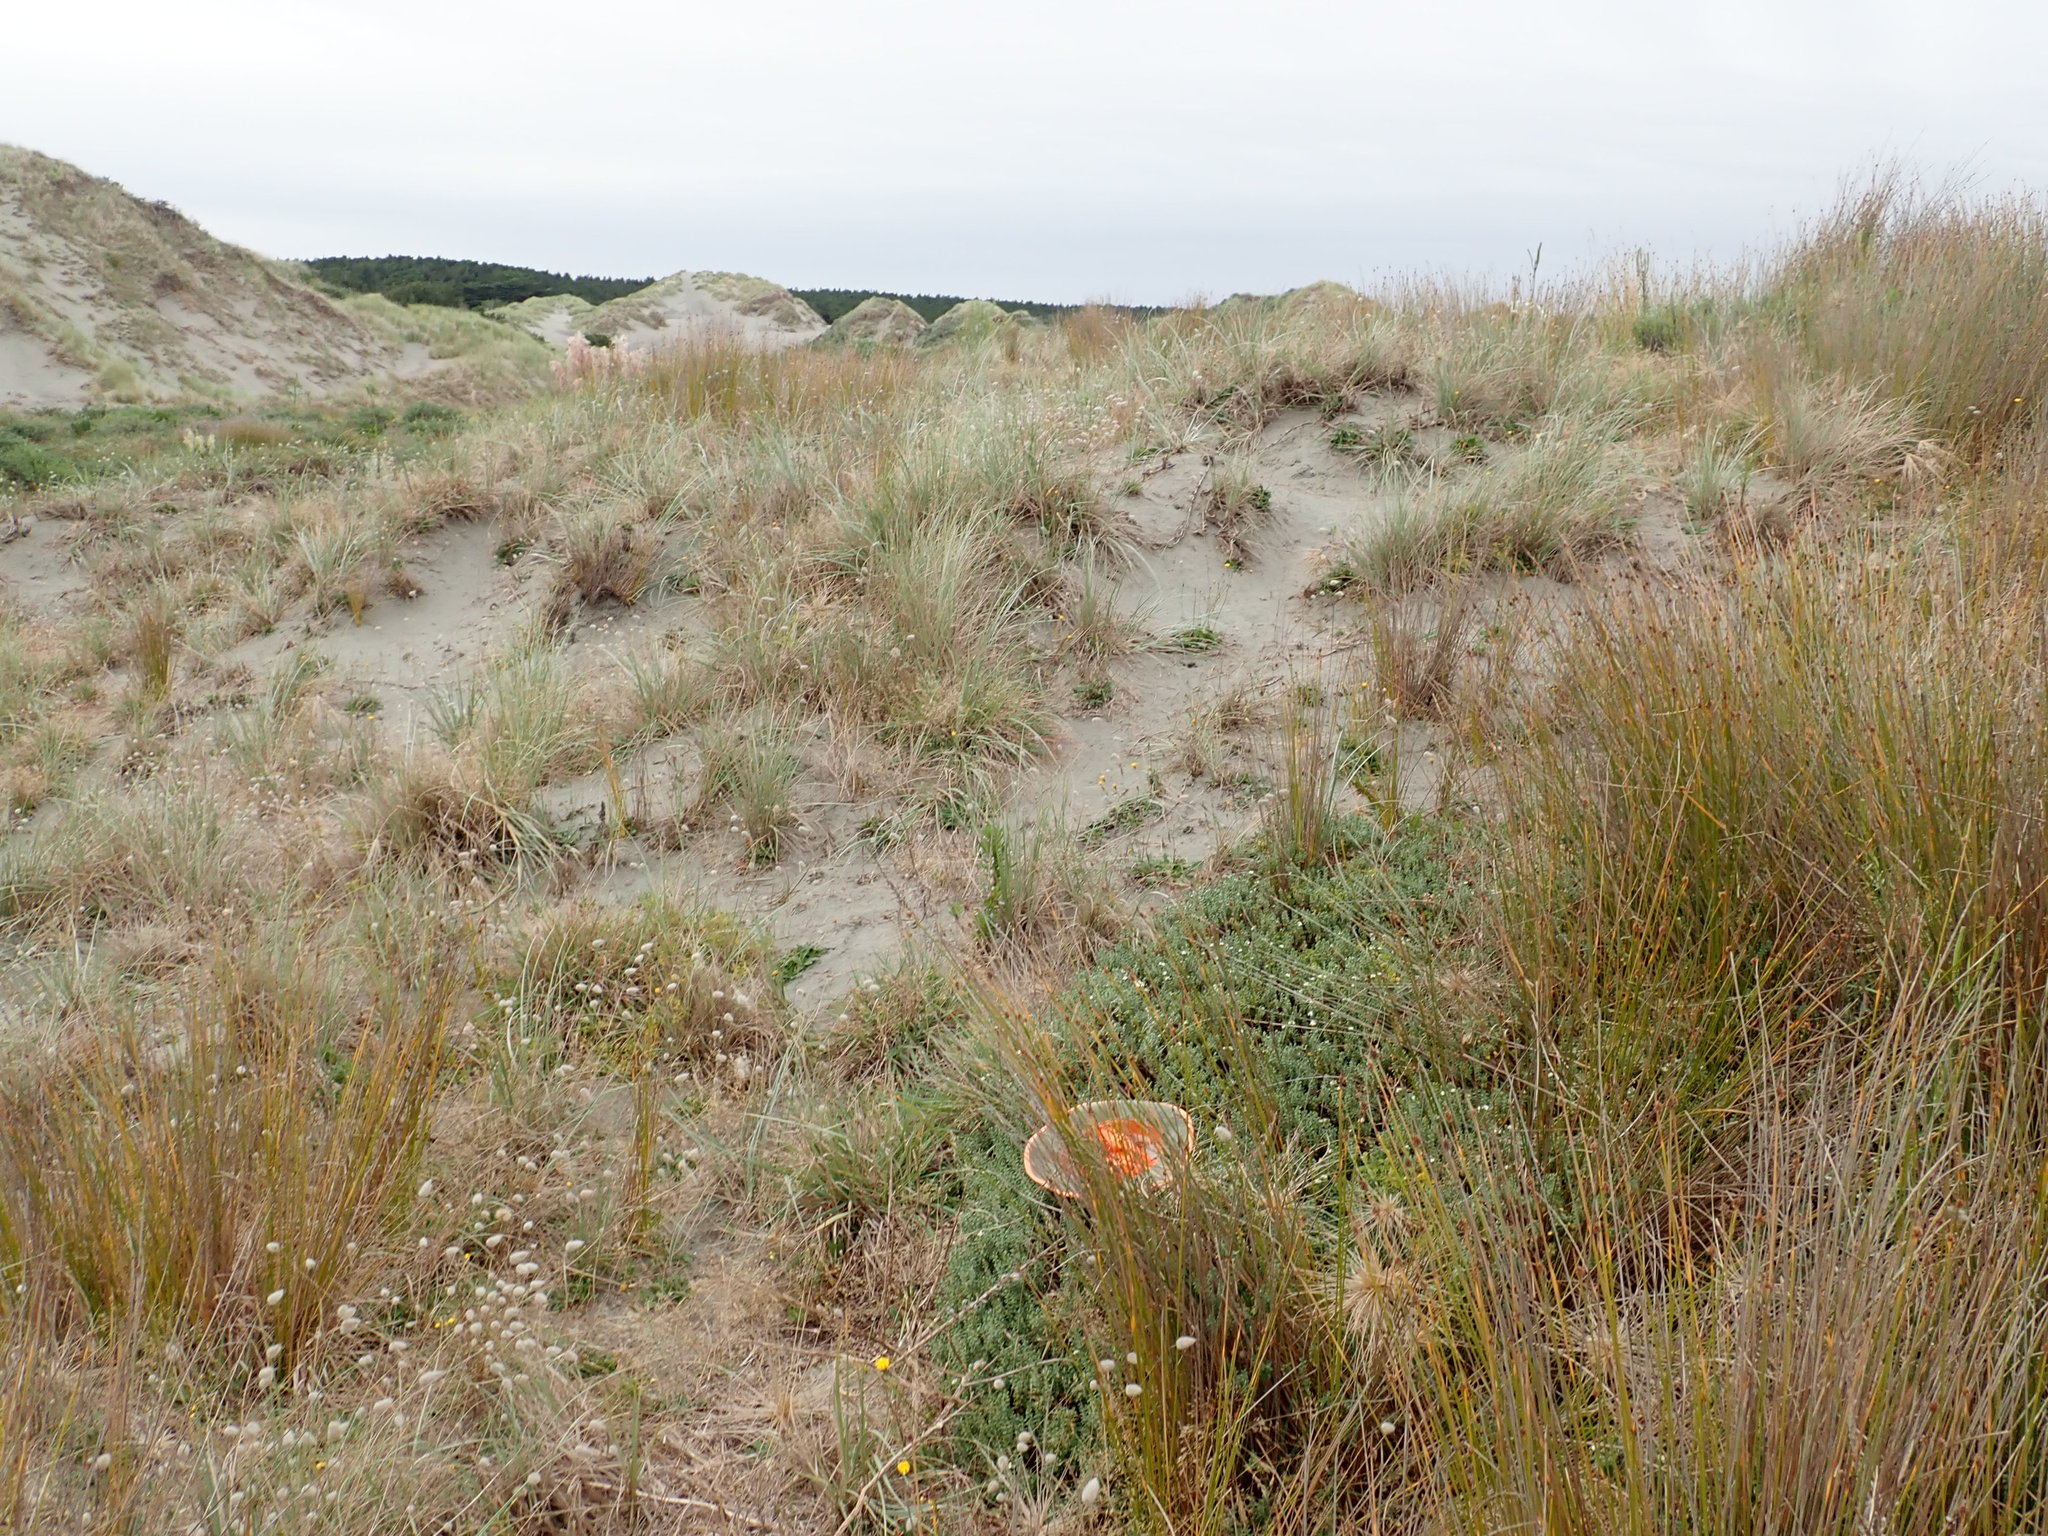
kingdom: Plantae
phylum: Tracheophyta
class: Magnoliopsida
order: Malvales
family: Thymelaeaceae
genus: Pimelea
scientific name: Pimelea villosa
